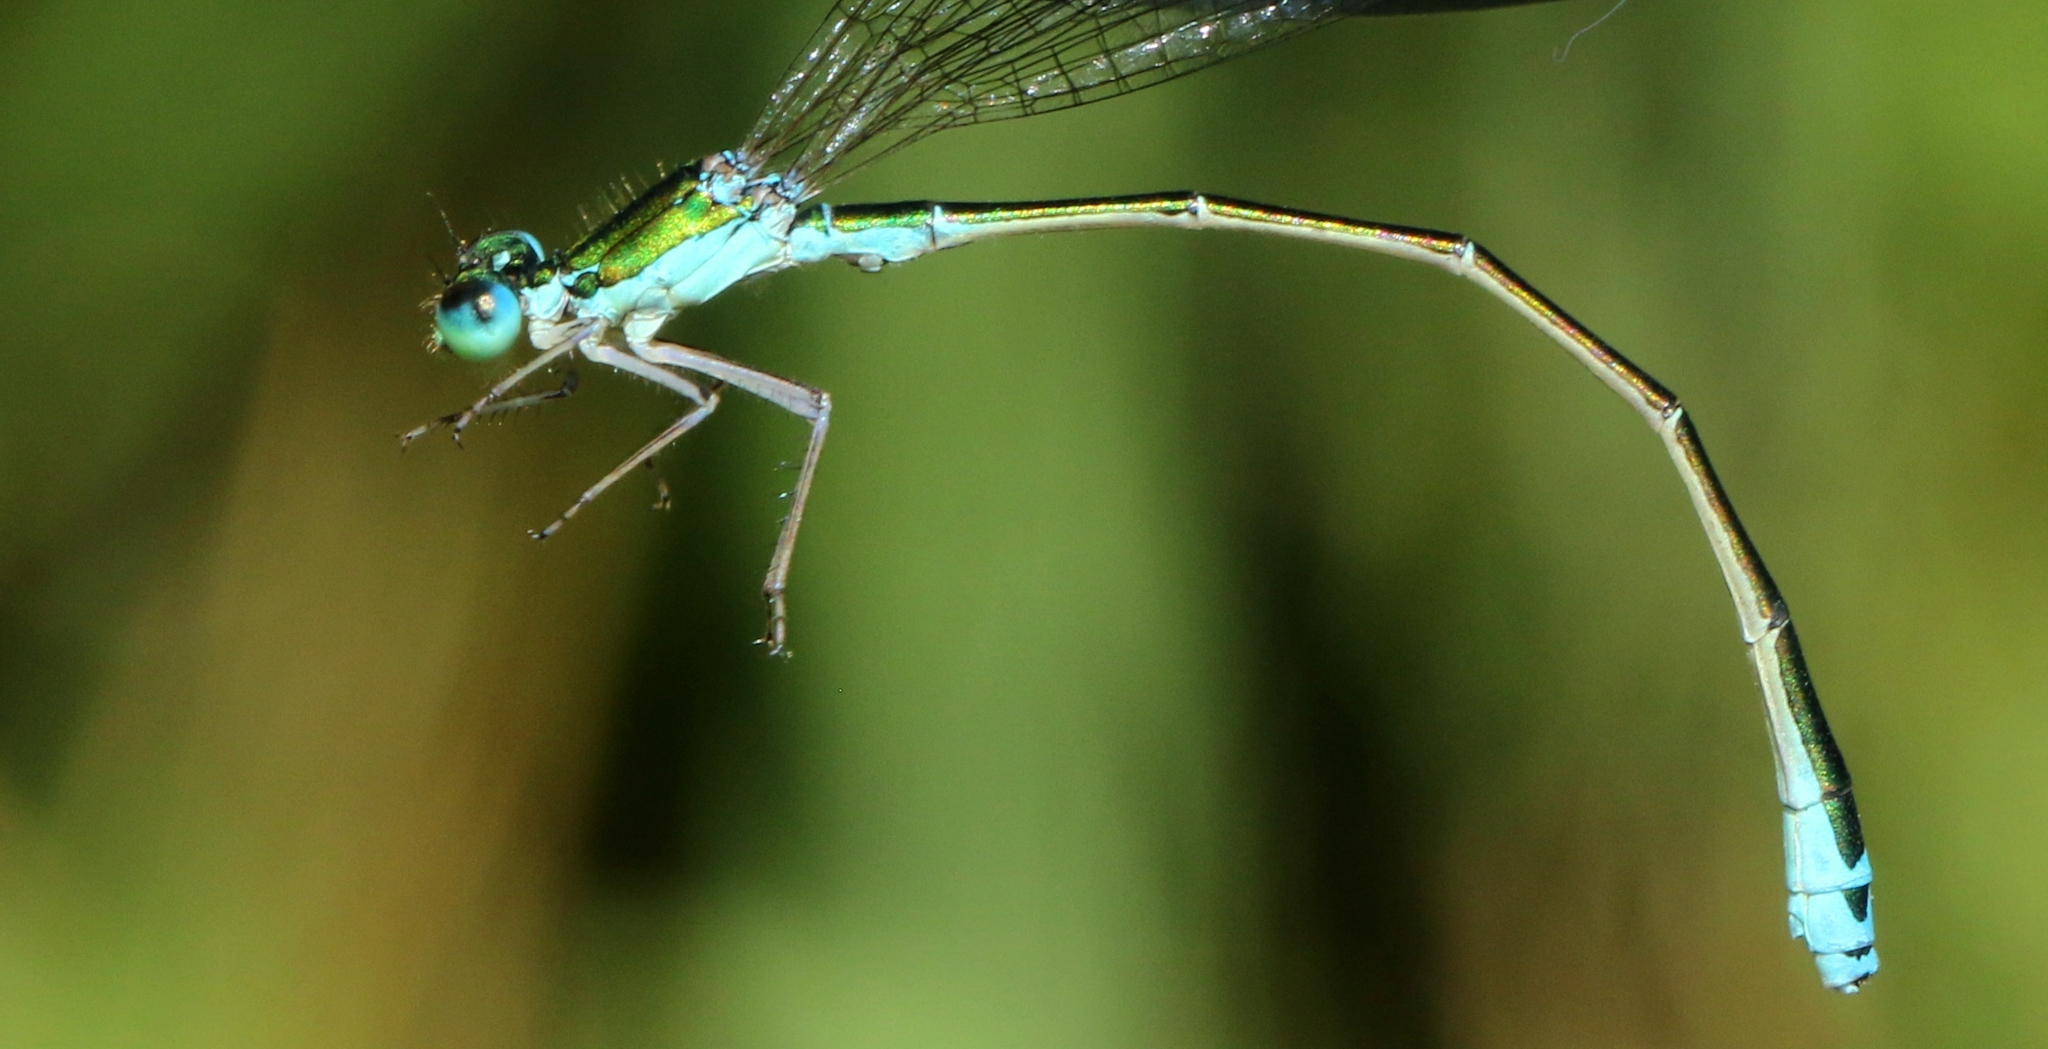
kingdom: Animalia
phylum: Arthropoda
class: Insecta
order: Odonata
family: Coenagrionidae
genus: Nehalennia
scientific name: Nehalennia irene
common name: Sedge sprite
